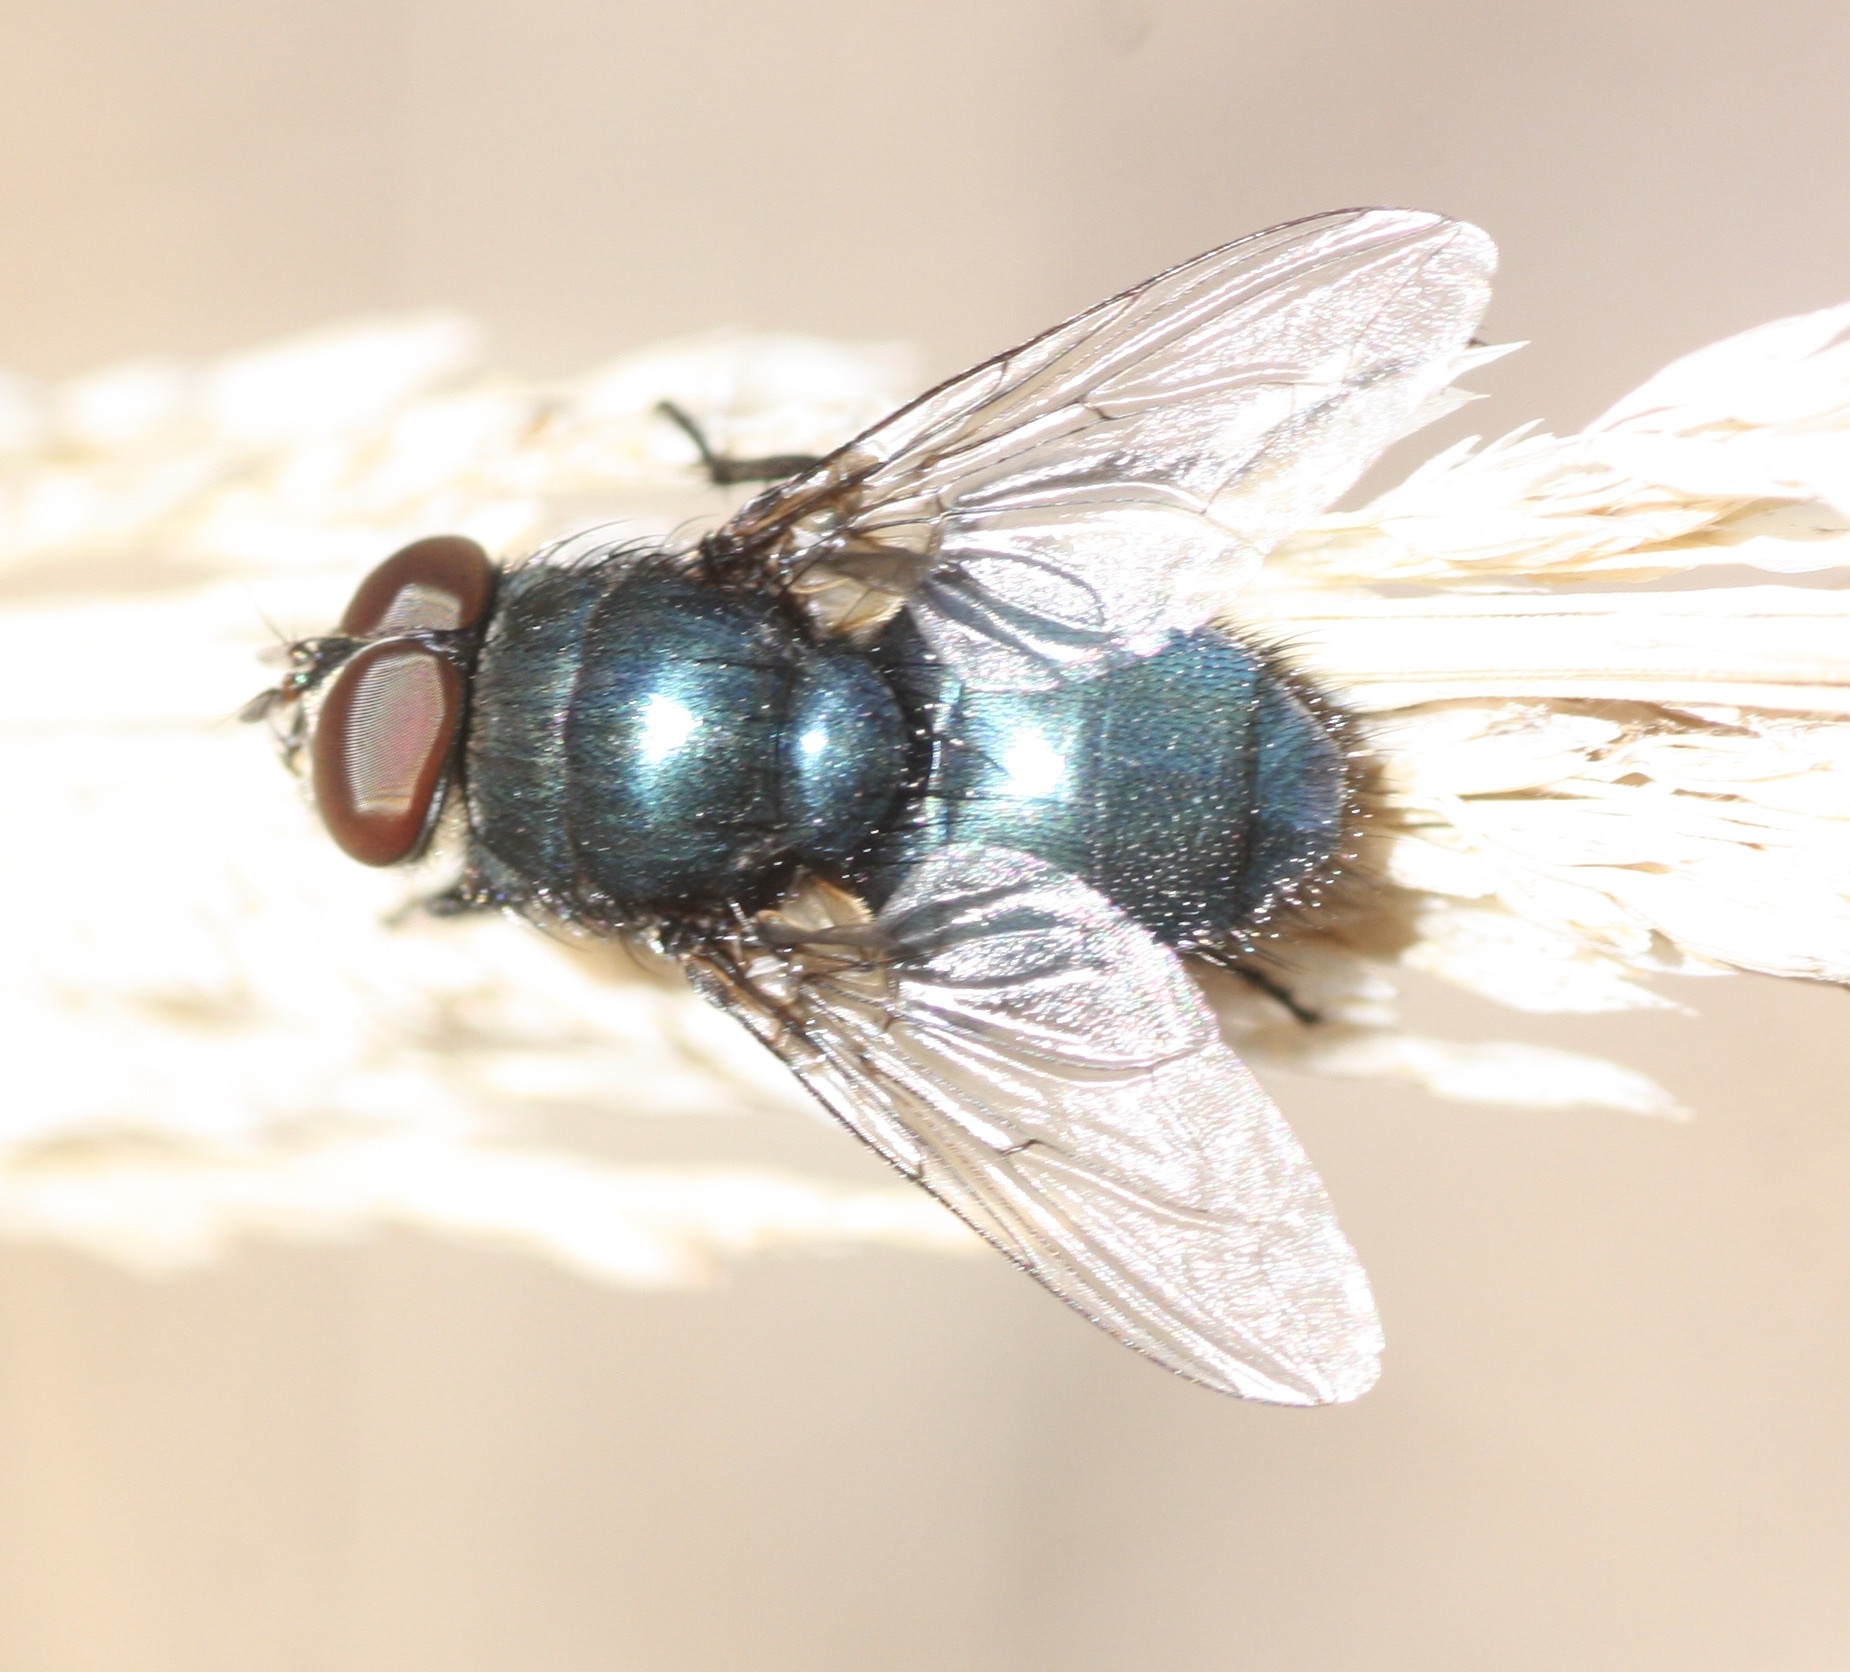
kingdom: Animalia
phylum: Arthropoda
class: Insecta
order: Diptera
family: Calliphoridae
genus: Phormia
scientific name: Phormia regina
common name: Black blow fly
